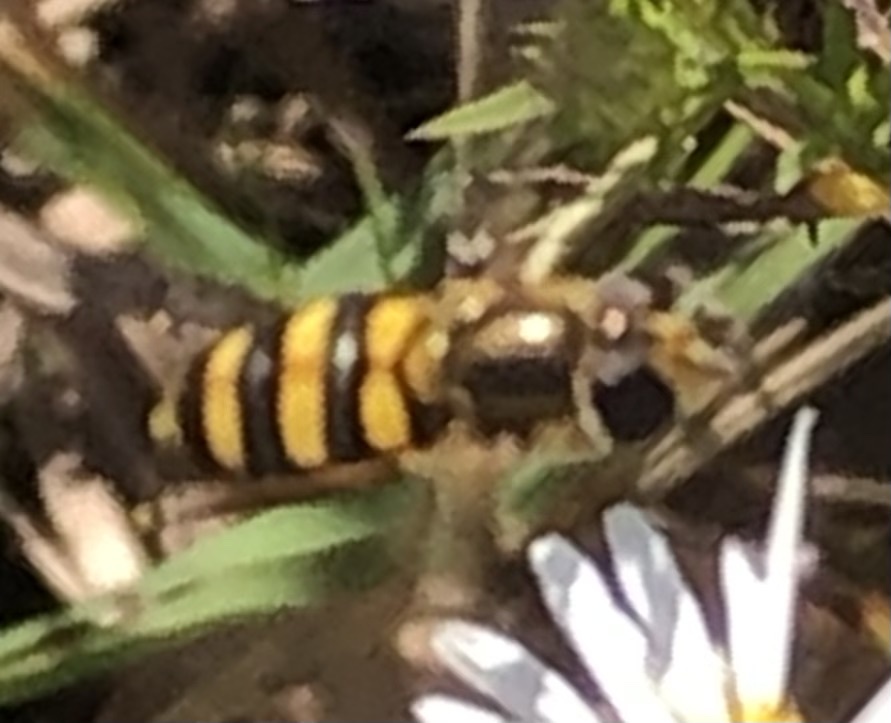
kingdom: Animalia
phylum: Arthropoda
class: Insecta
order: Diptera
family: Syrphidae
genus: Eupeodes
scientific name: Eupeodes
